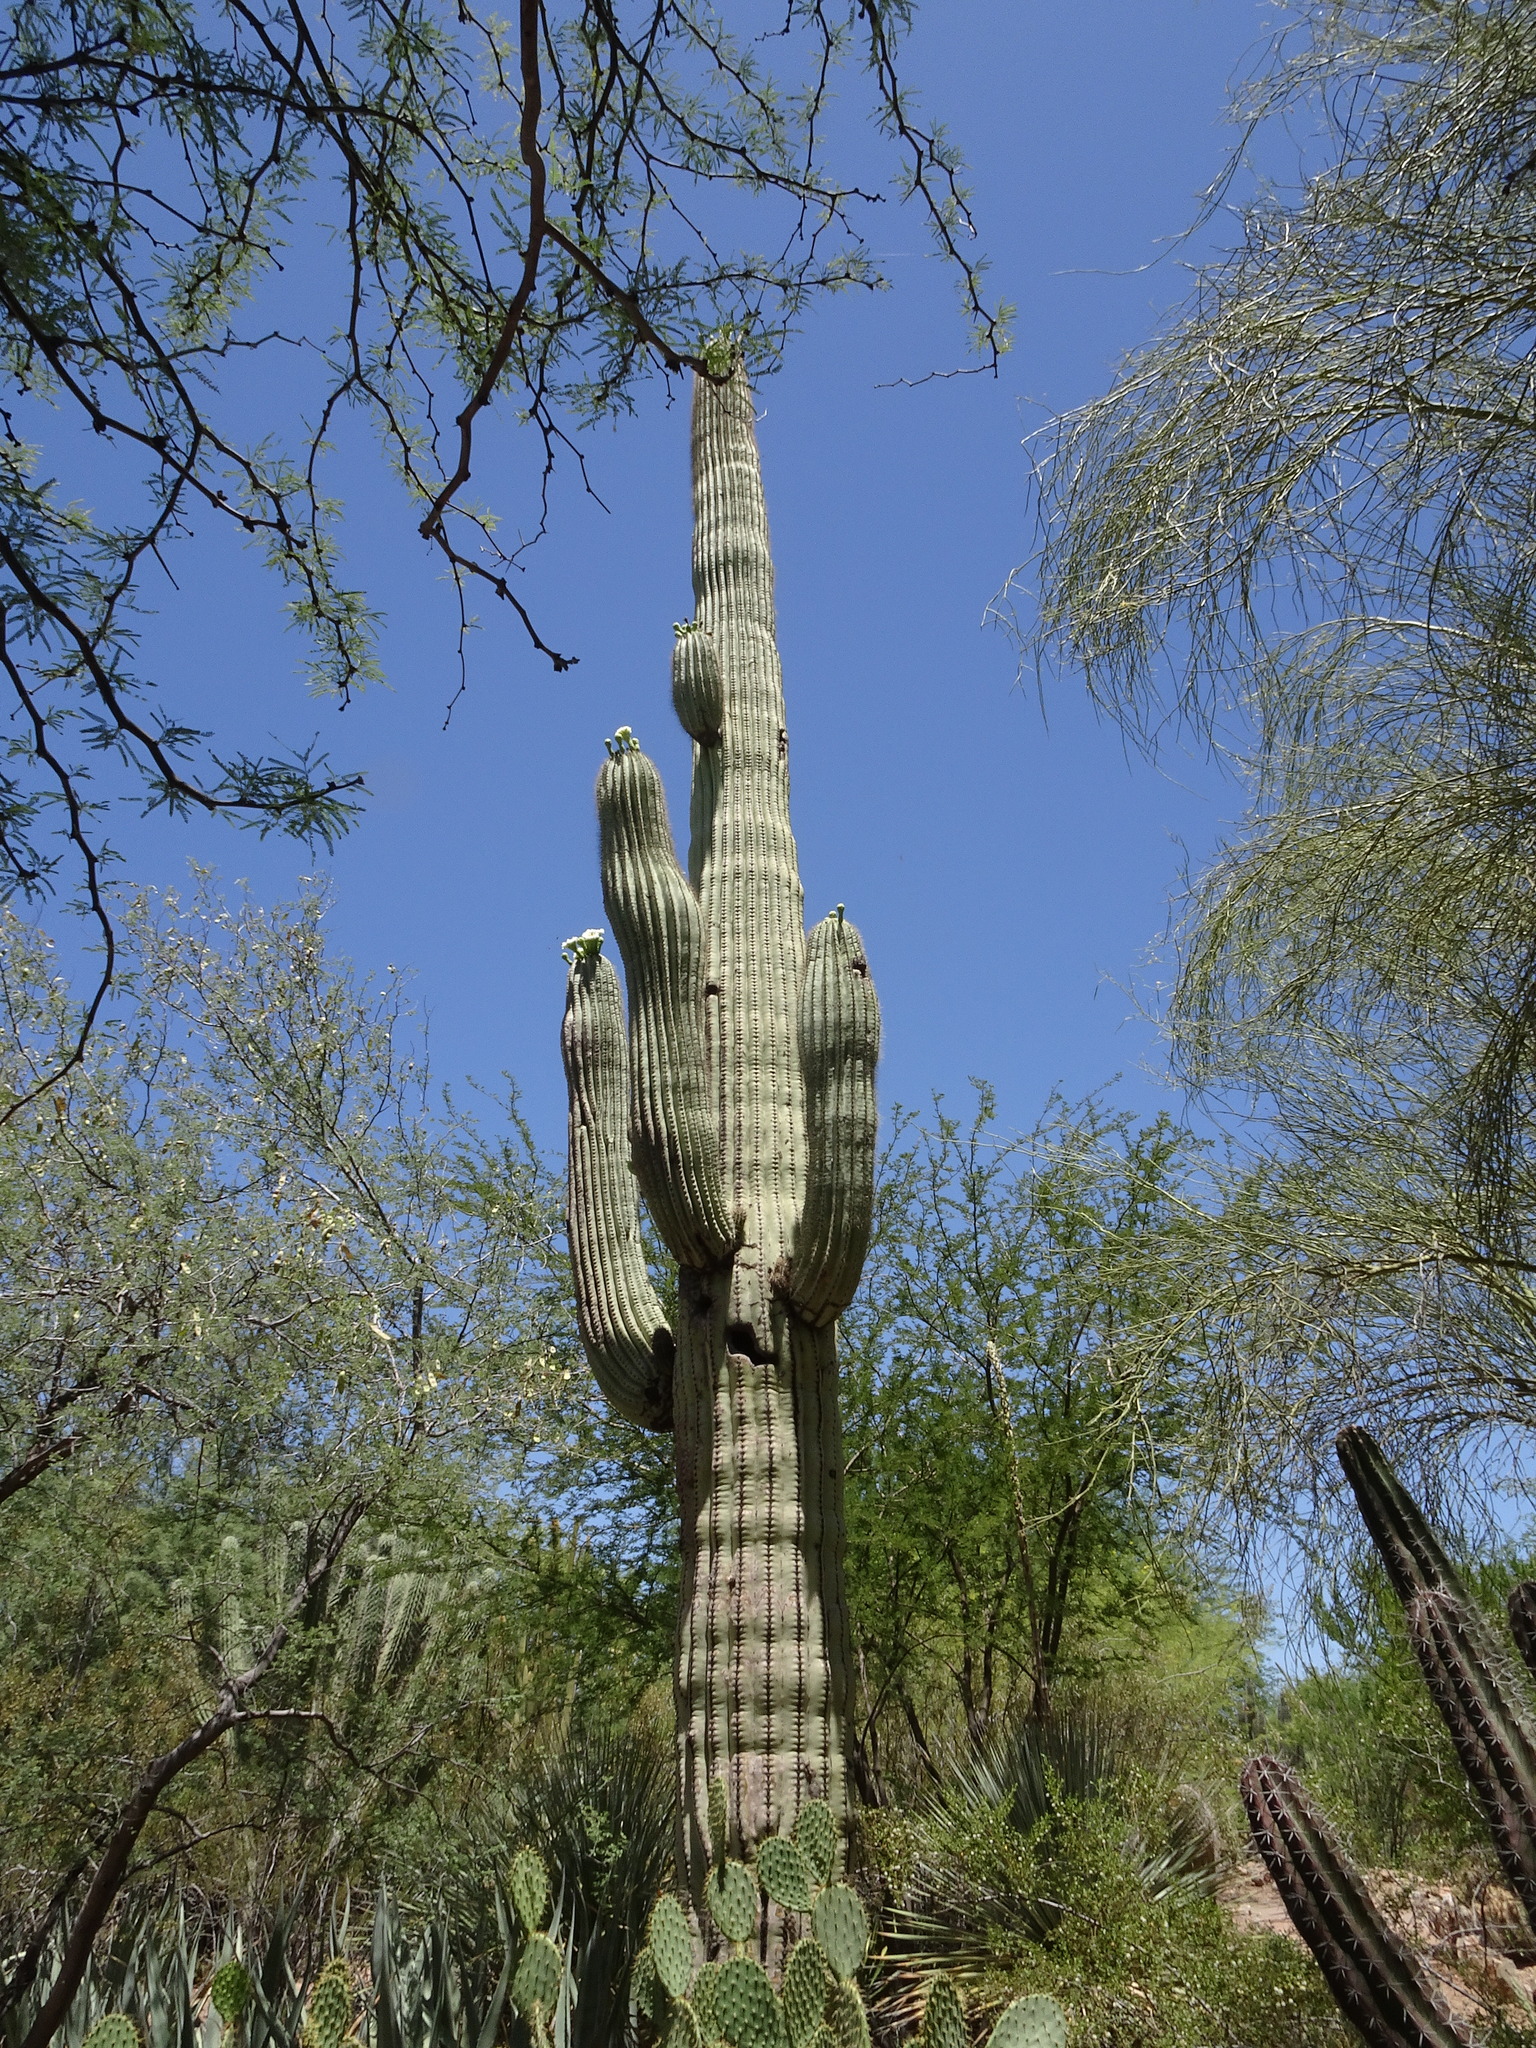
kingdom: Plantae
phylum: Tracheophyta
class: Magnoliopsida
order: Caryophyllales
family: Cactaceae
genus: Carnegiea
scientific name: Carnegiea gigantea
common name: Saguaro
